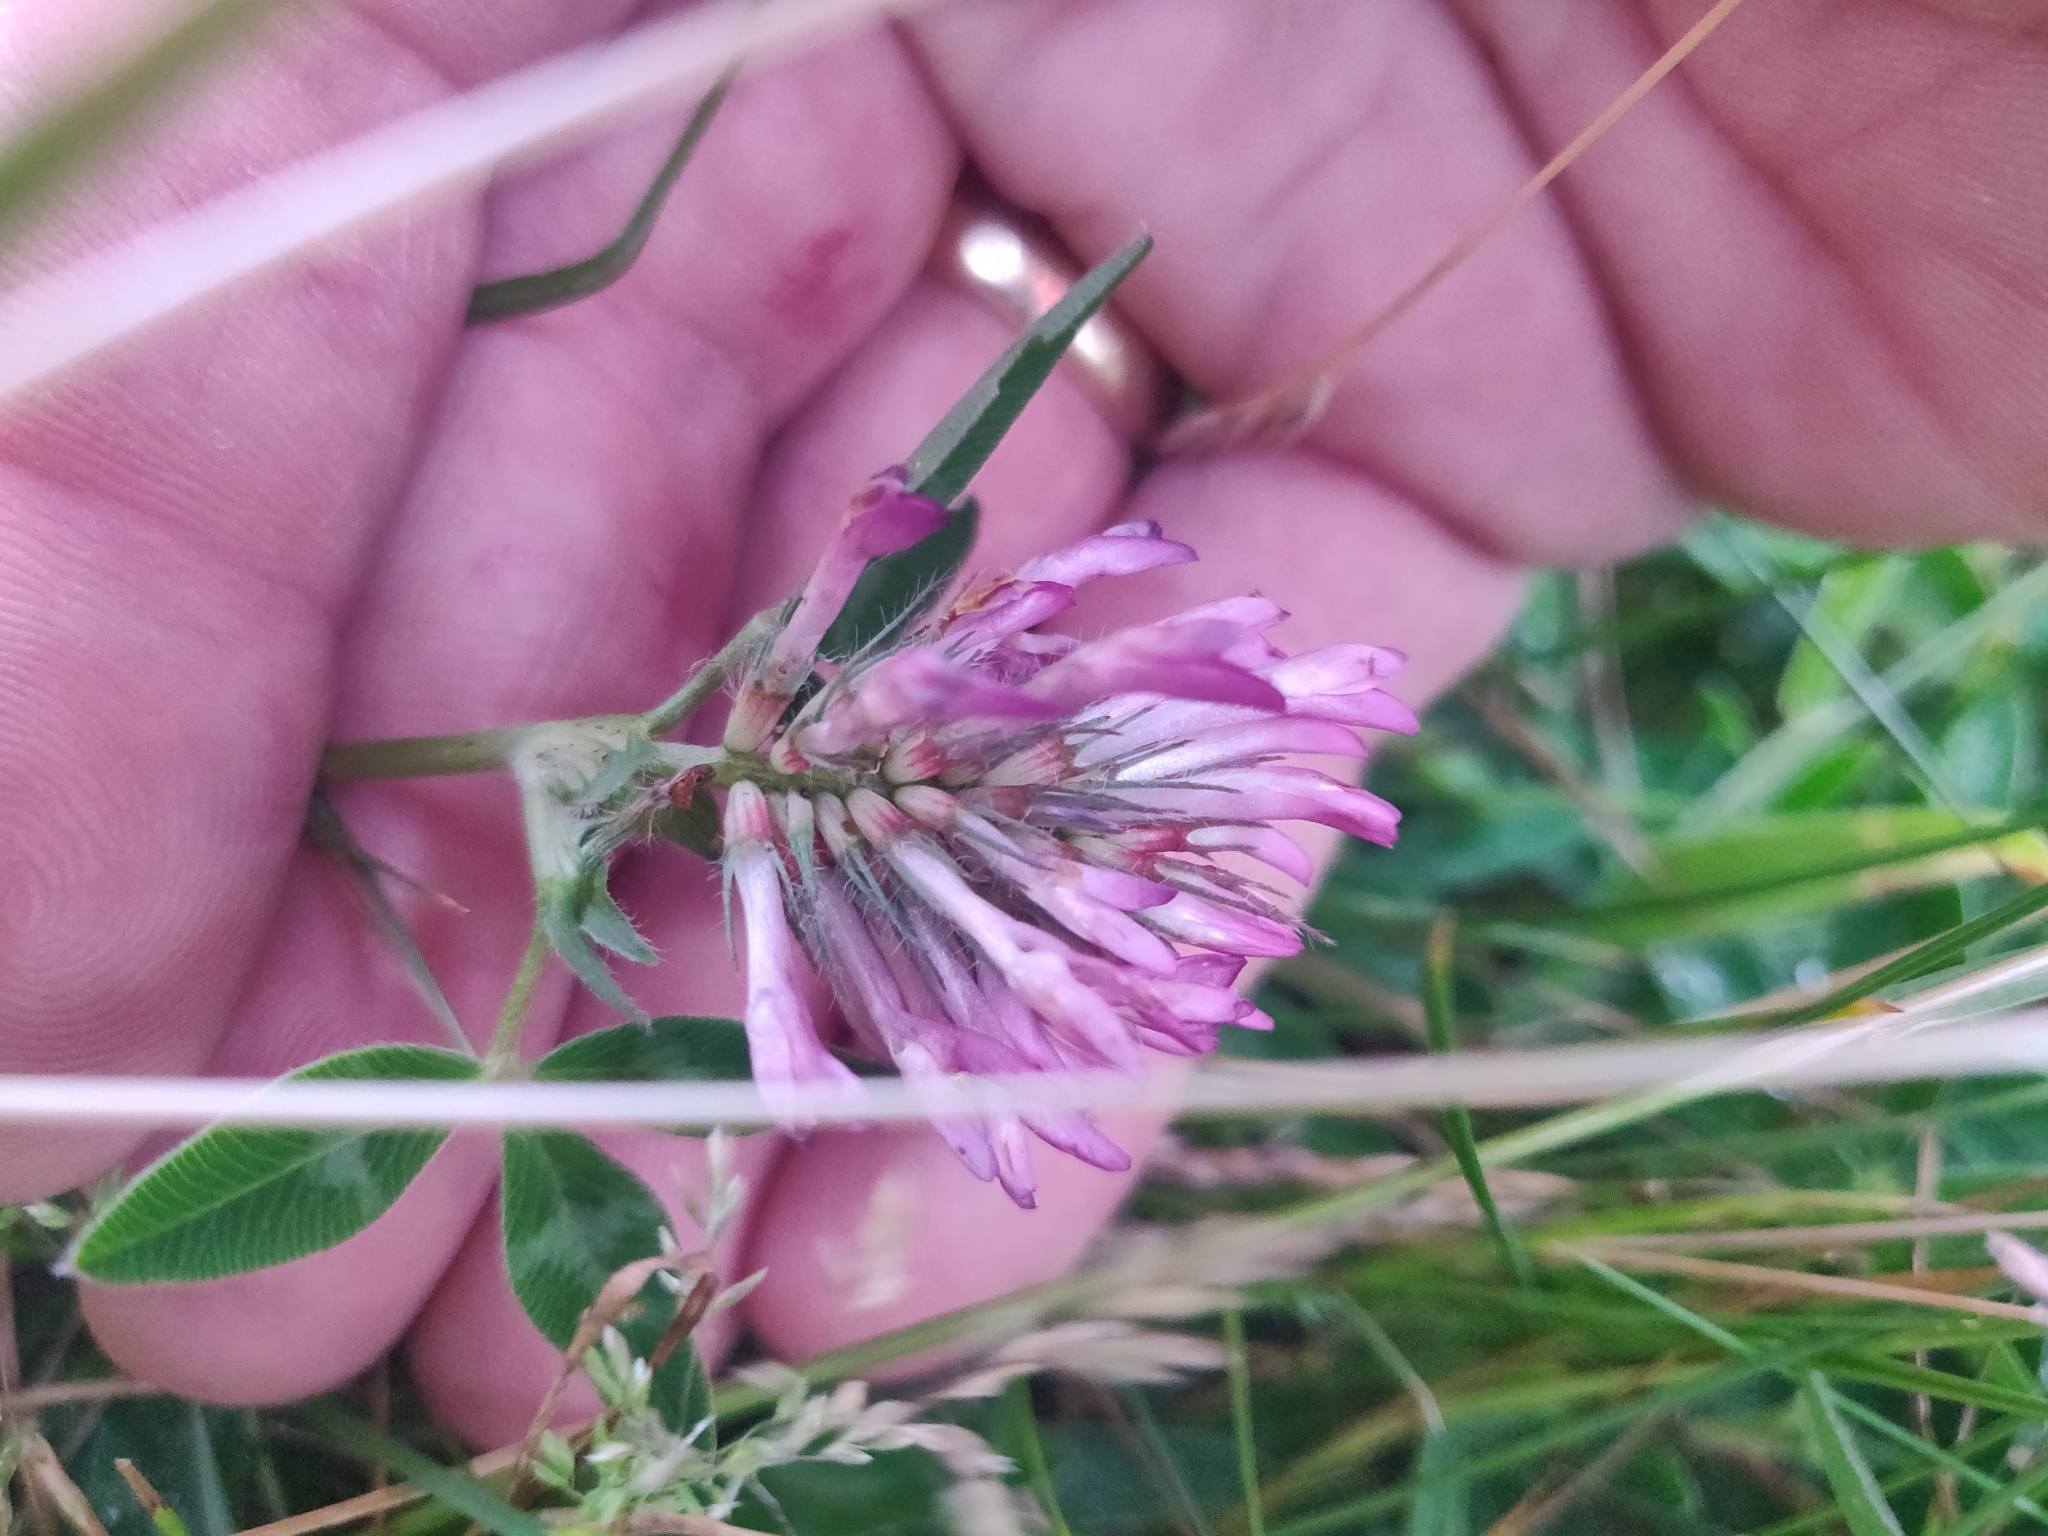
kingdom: Plantae
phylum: Tracheophyta
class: Magnoliopsida
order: Fabales
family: Fabaceae
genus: Trifolium
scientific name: Trifolium medium
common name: Zigzag clover
